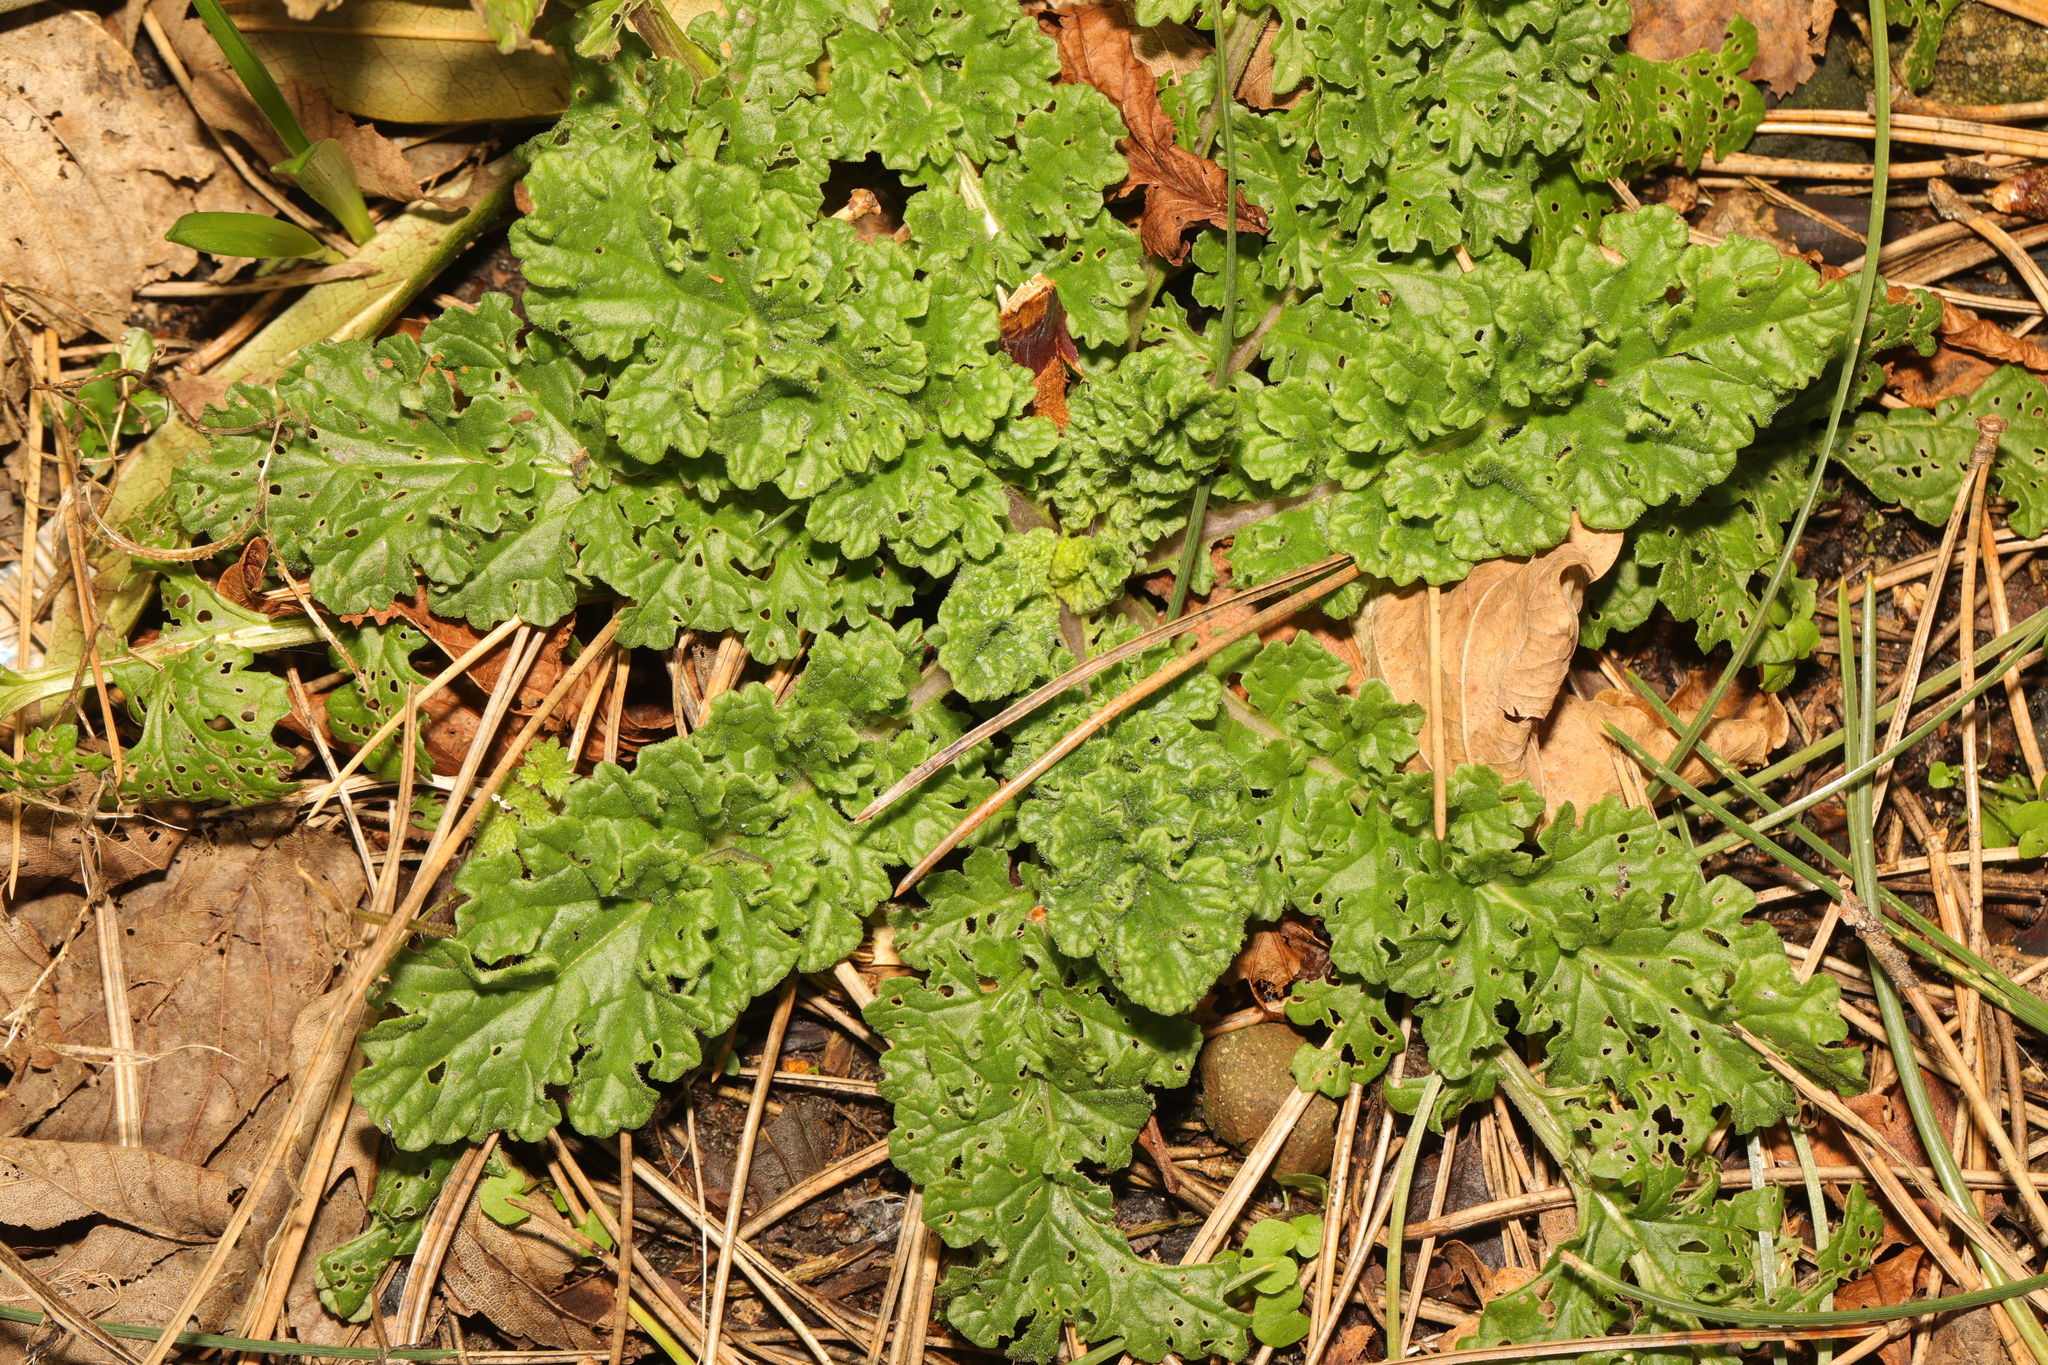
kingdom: Plantae
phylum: Tracheophyta
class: Magnoliopsida
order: Asterales
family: Asteraceae
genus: Jacobaea
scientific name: Jacobaea vulgaris
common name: Stinking willie
